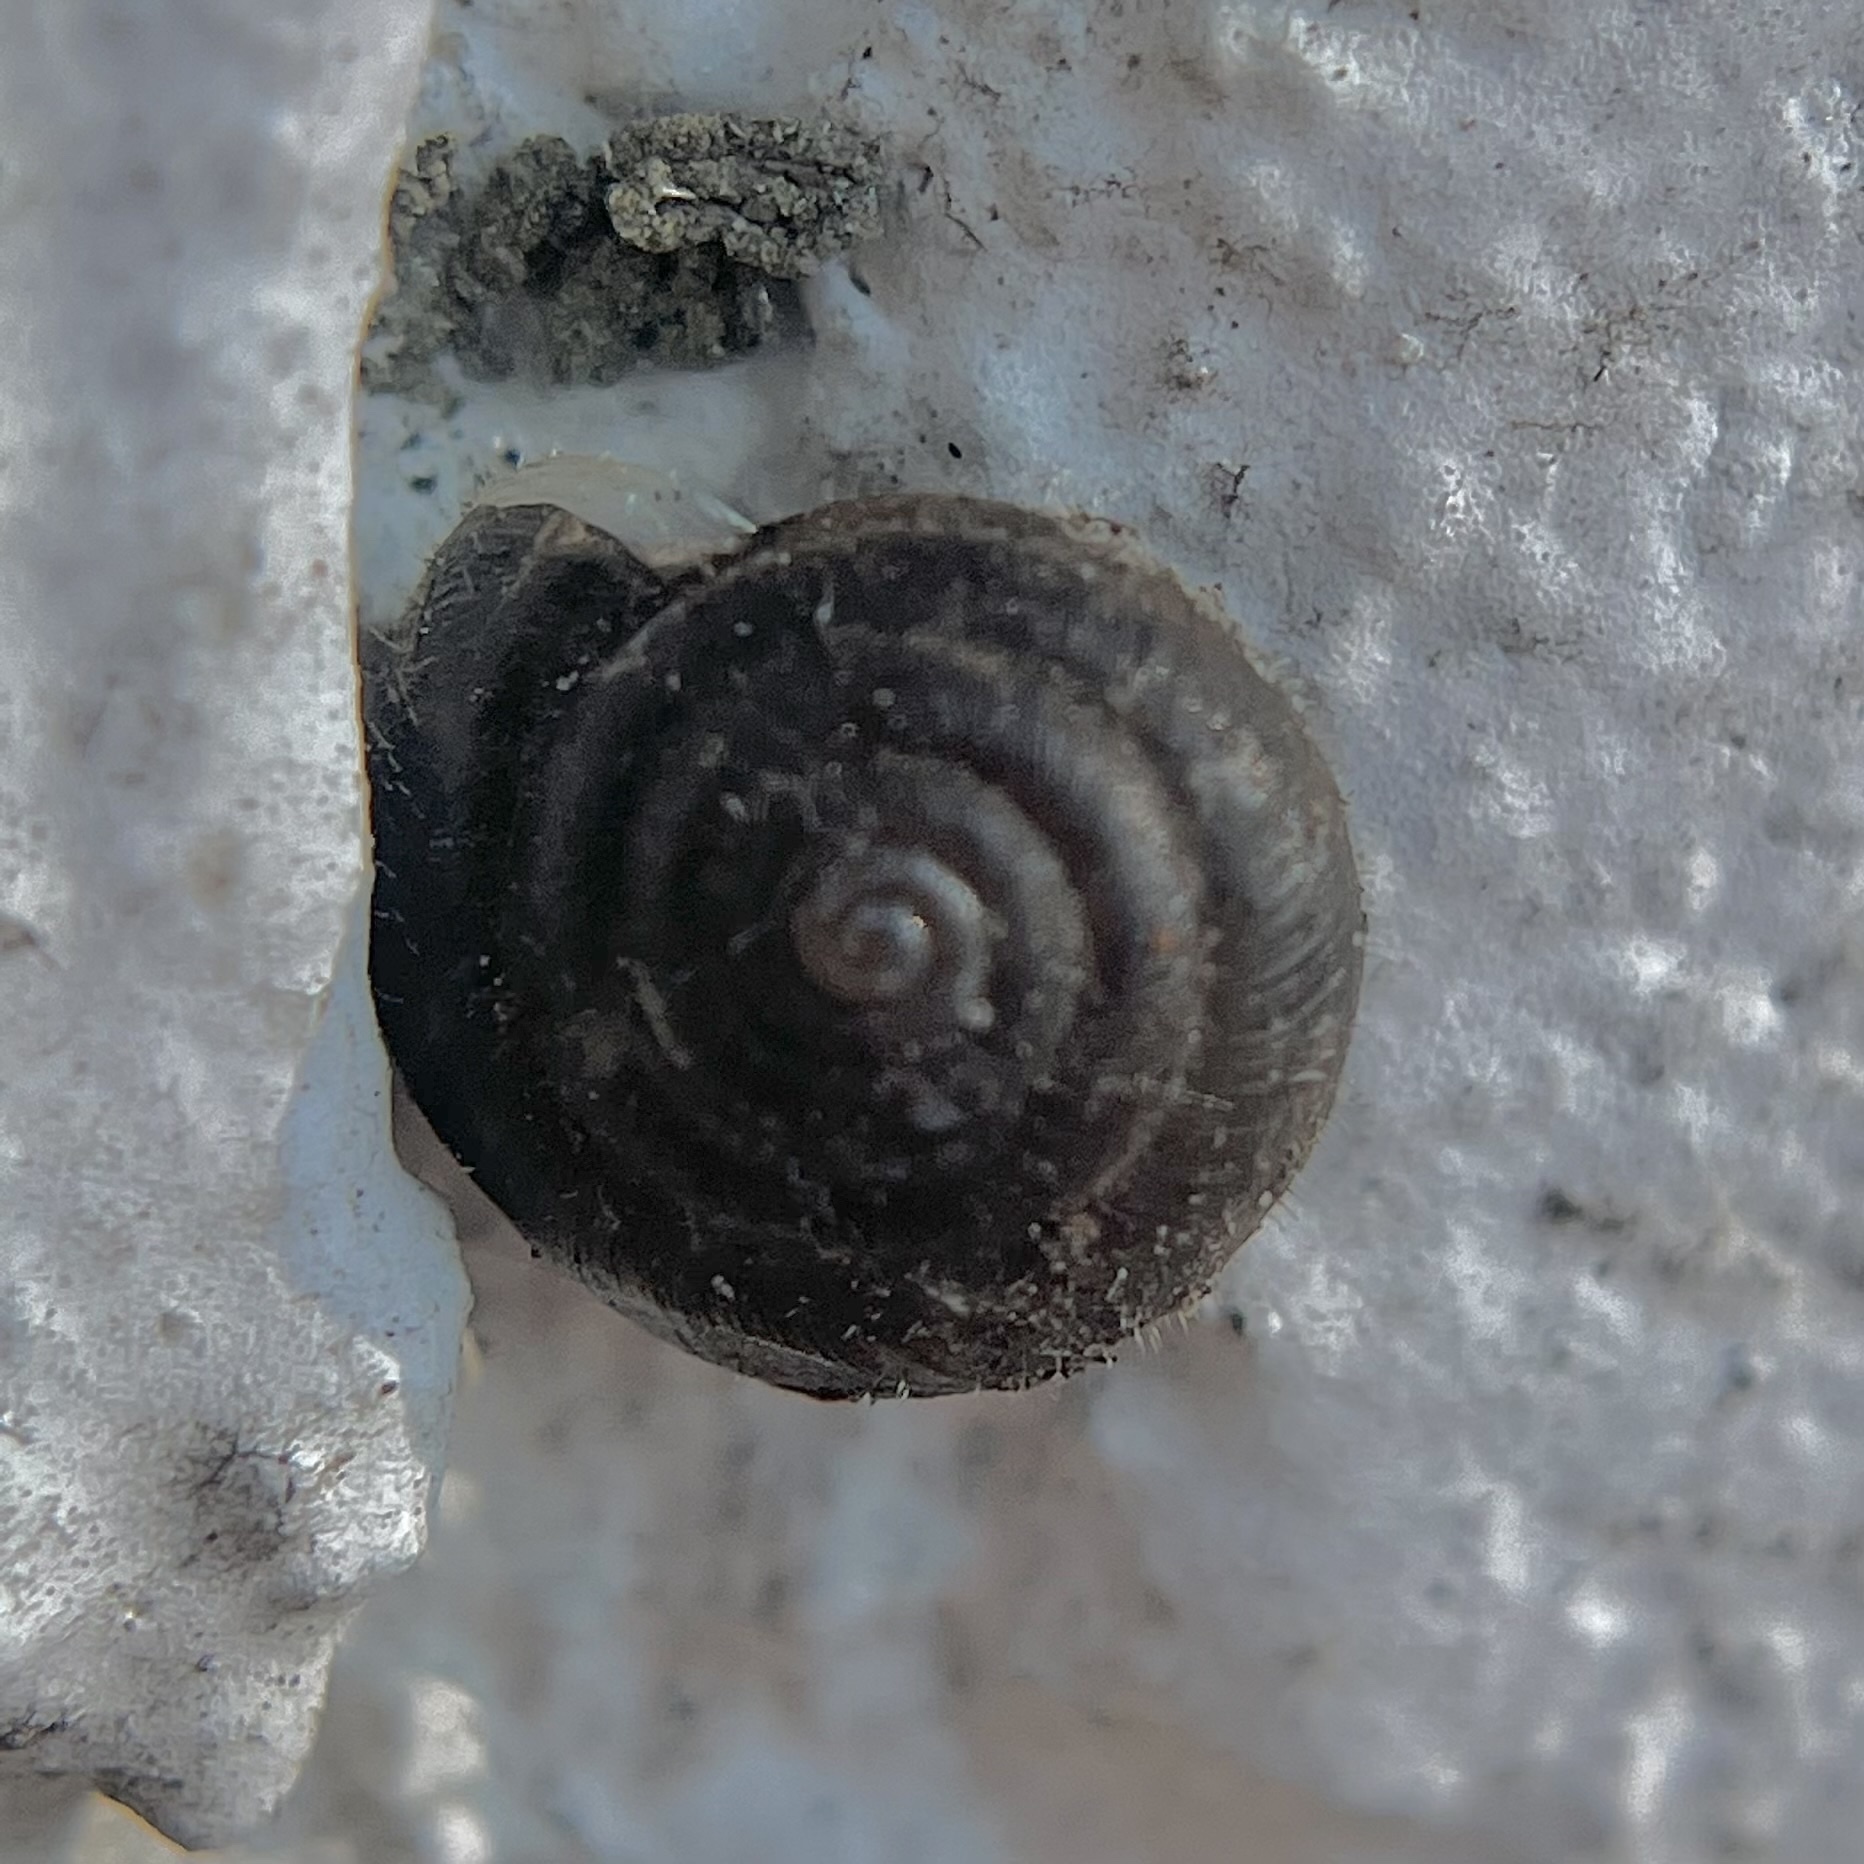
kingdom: Animalia
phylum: Mollusca
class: Gastropoda
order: Stylommatophora
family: Hygromiidae
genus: Trochulus
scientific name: Trochulus hispidus
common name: Hairy snail
